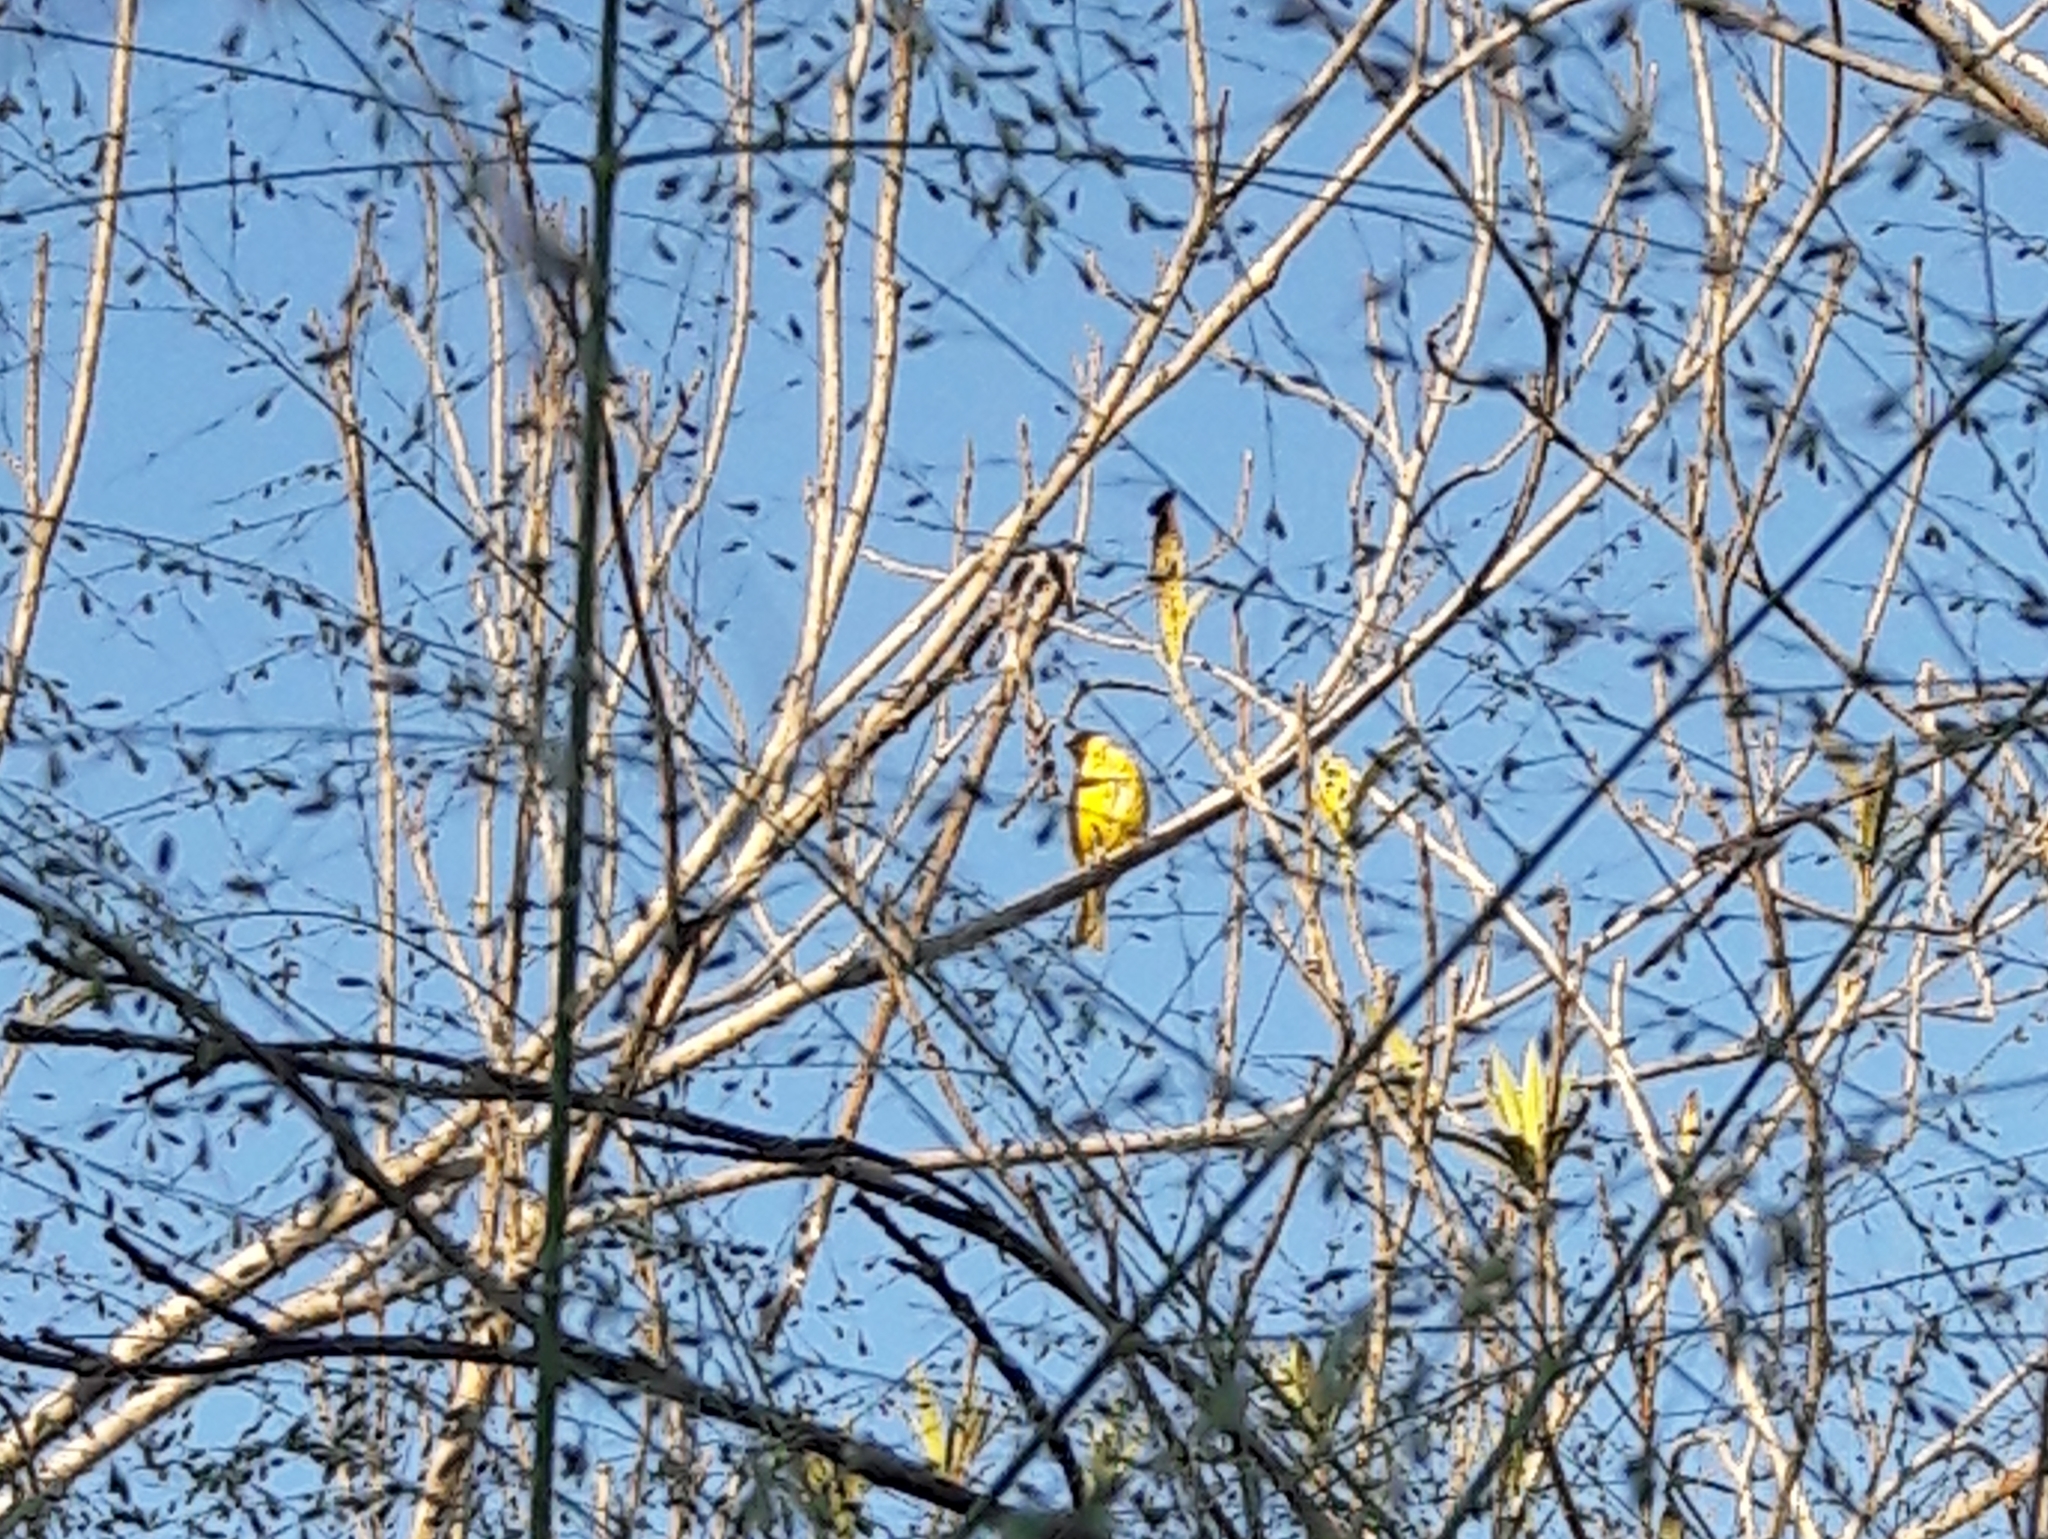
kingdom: Animalia
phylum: Chordata
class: Aves
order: Passeriformes
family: Thraupidae
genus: Sicalis
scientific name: Sicalis flaveola
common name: Saffron finch
